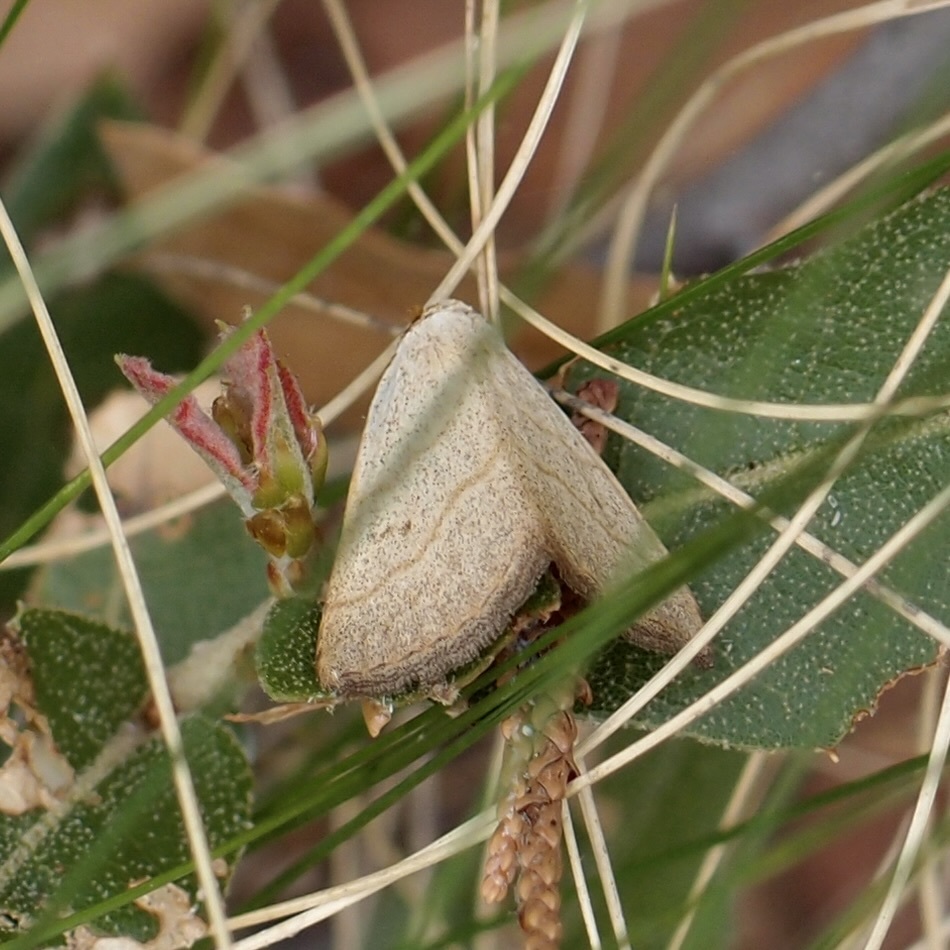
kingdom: Animalia
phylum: Arthropoda
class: Insecta
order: Lepidoptera
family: Erebidae
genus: Oxycilla
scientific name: Oxycilla tripla
